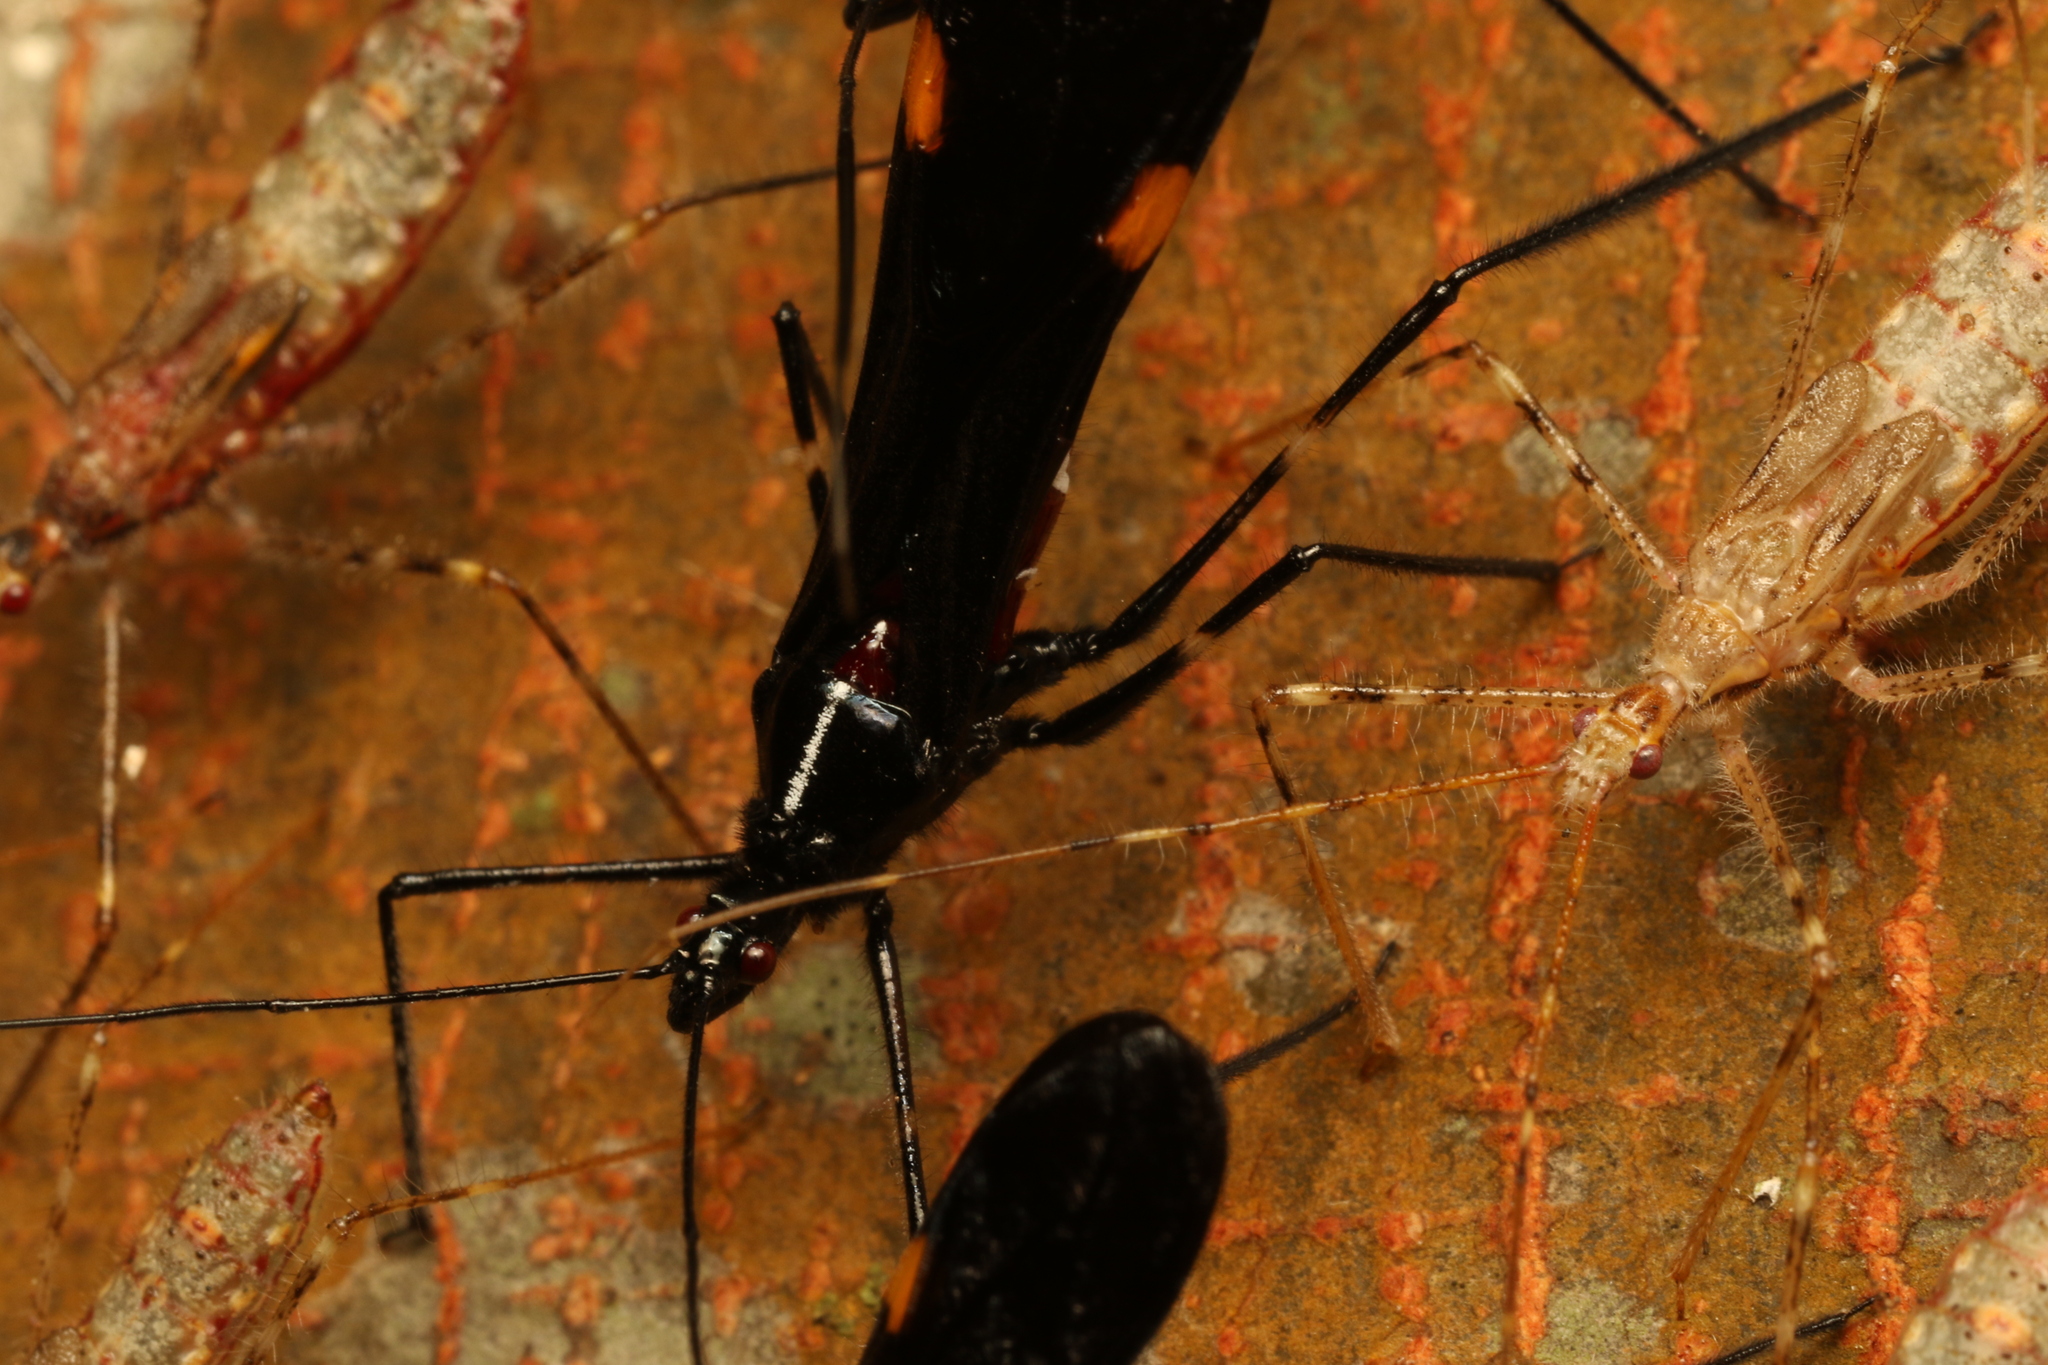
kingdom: Animalia
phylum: Arthropoda
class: Insecta
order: Hemiptera
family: Reduviidae
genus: Parahiranetis
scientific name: Parahiranetis salgadoi
